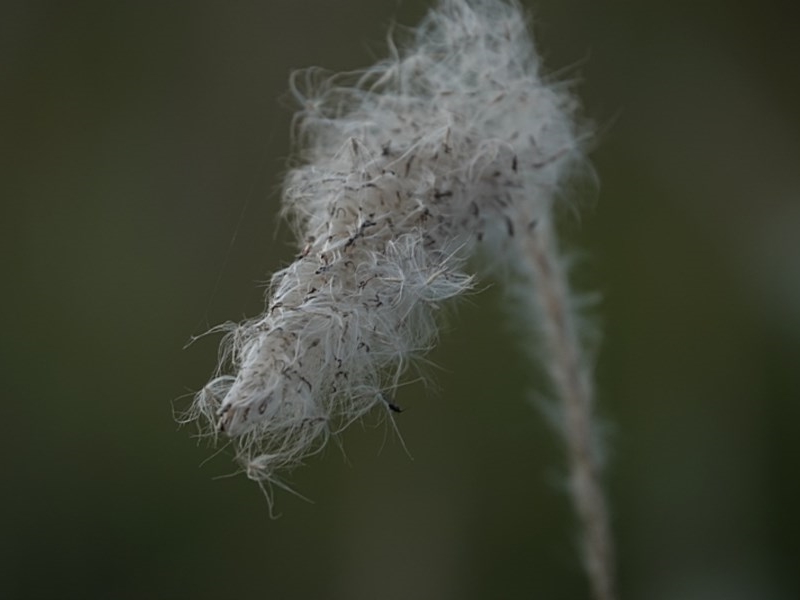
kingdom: Plantae
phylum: Tracheophyta
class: Liliopsida
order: Poales
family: Poaceae
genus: Imperata
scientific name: Imperata cylindrica
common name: Cogongrass
